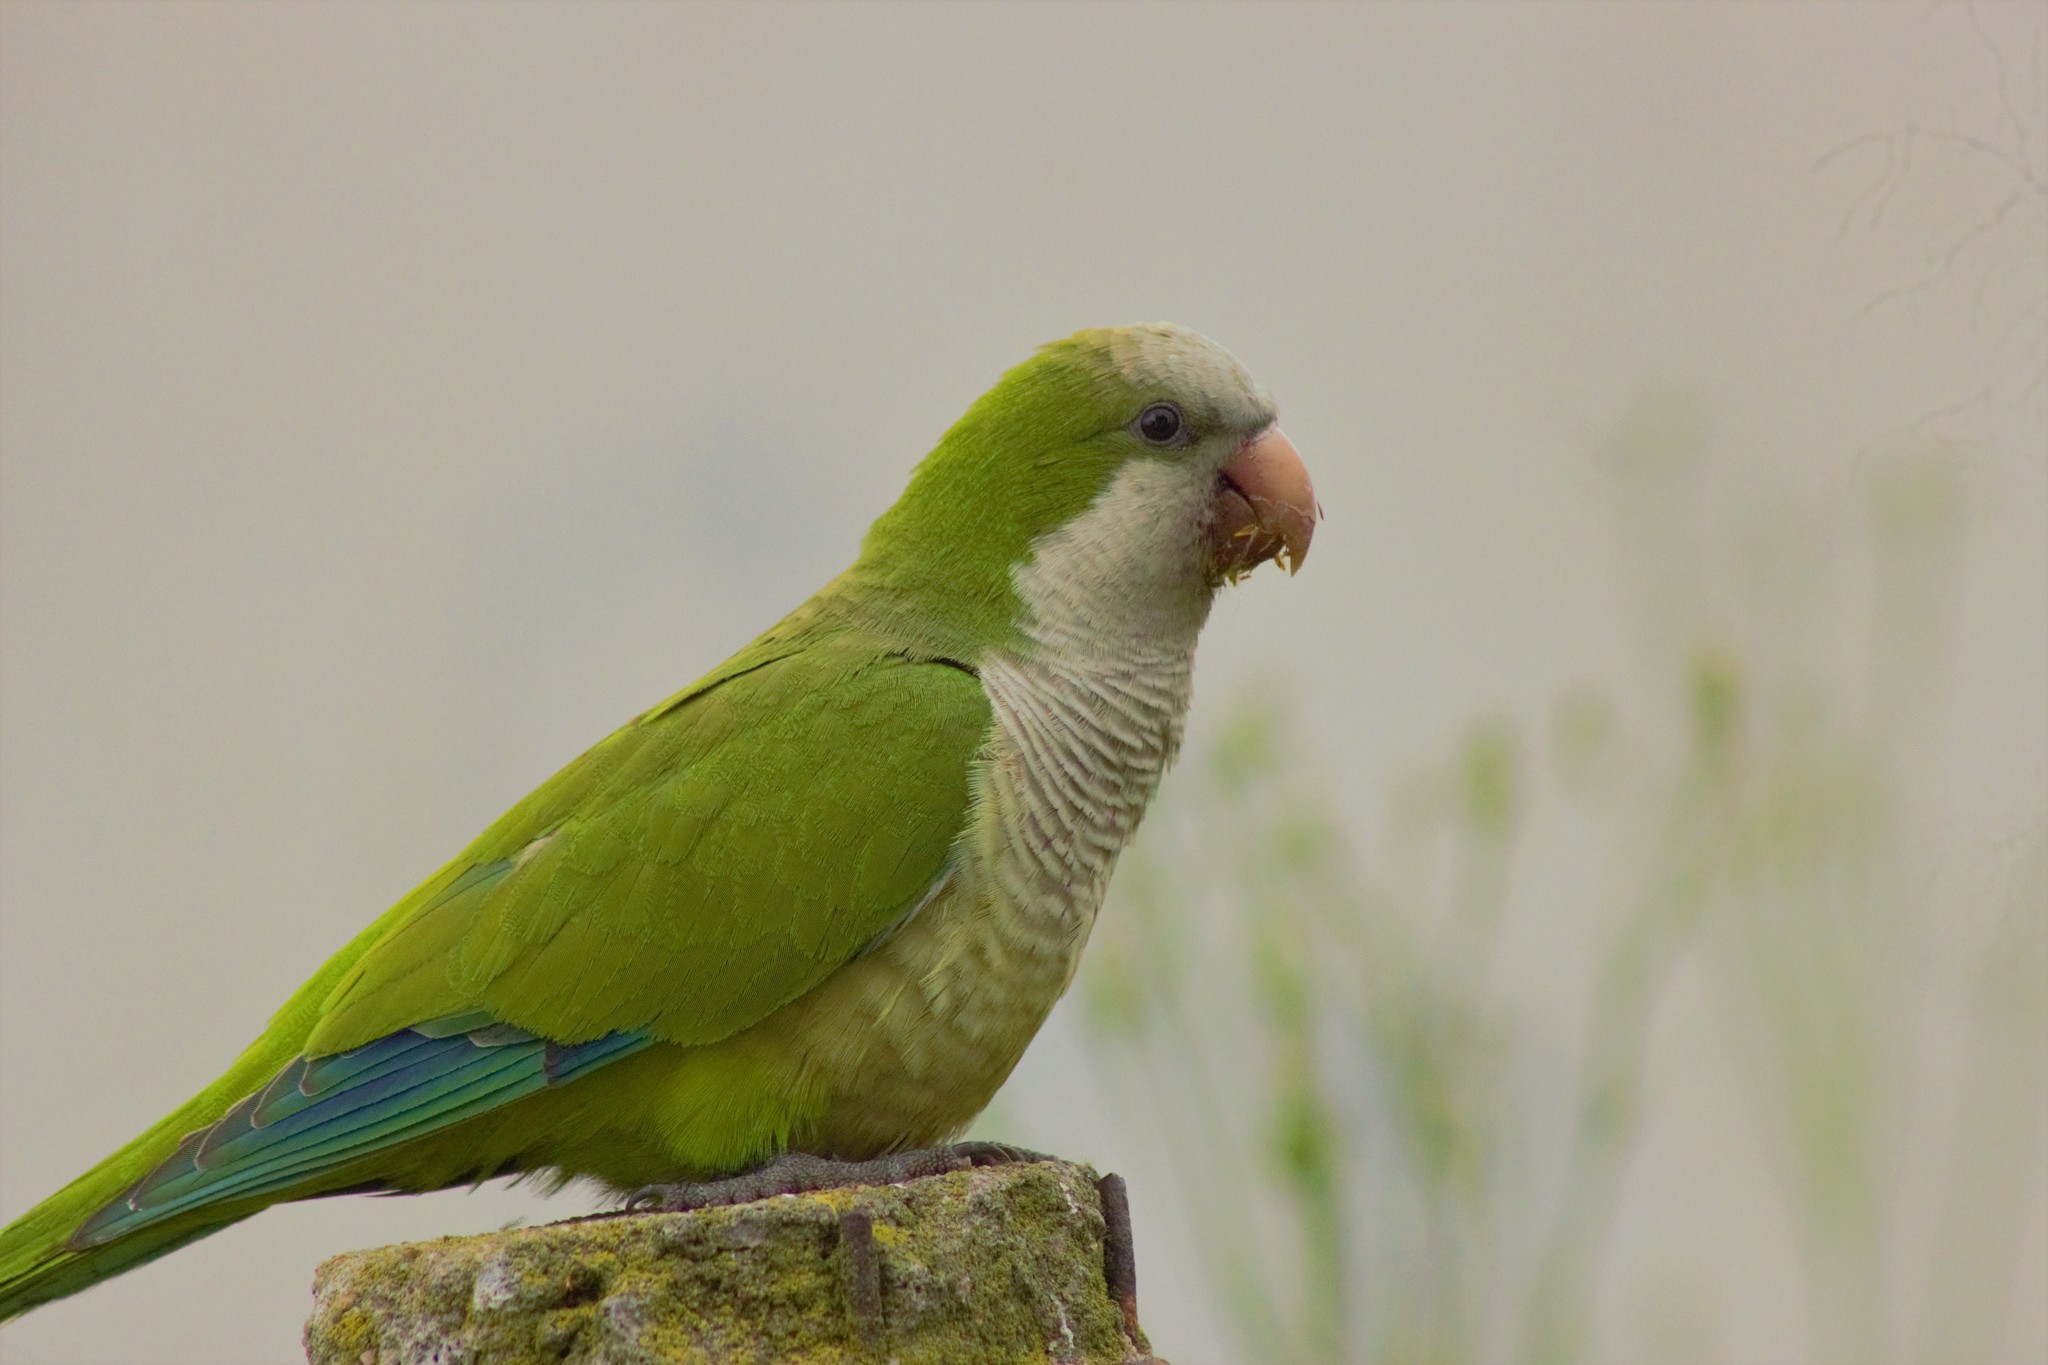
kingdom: Animalia
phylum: Chordata
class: Aves
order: Psittaciformes
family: Psittacidae
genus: Myiopsitta
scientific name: Myiopsitta monachus
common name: Monk parakeet
